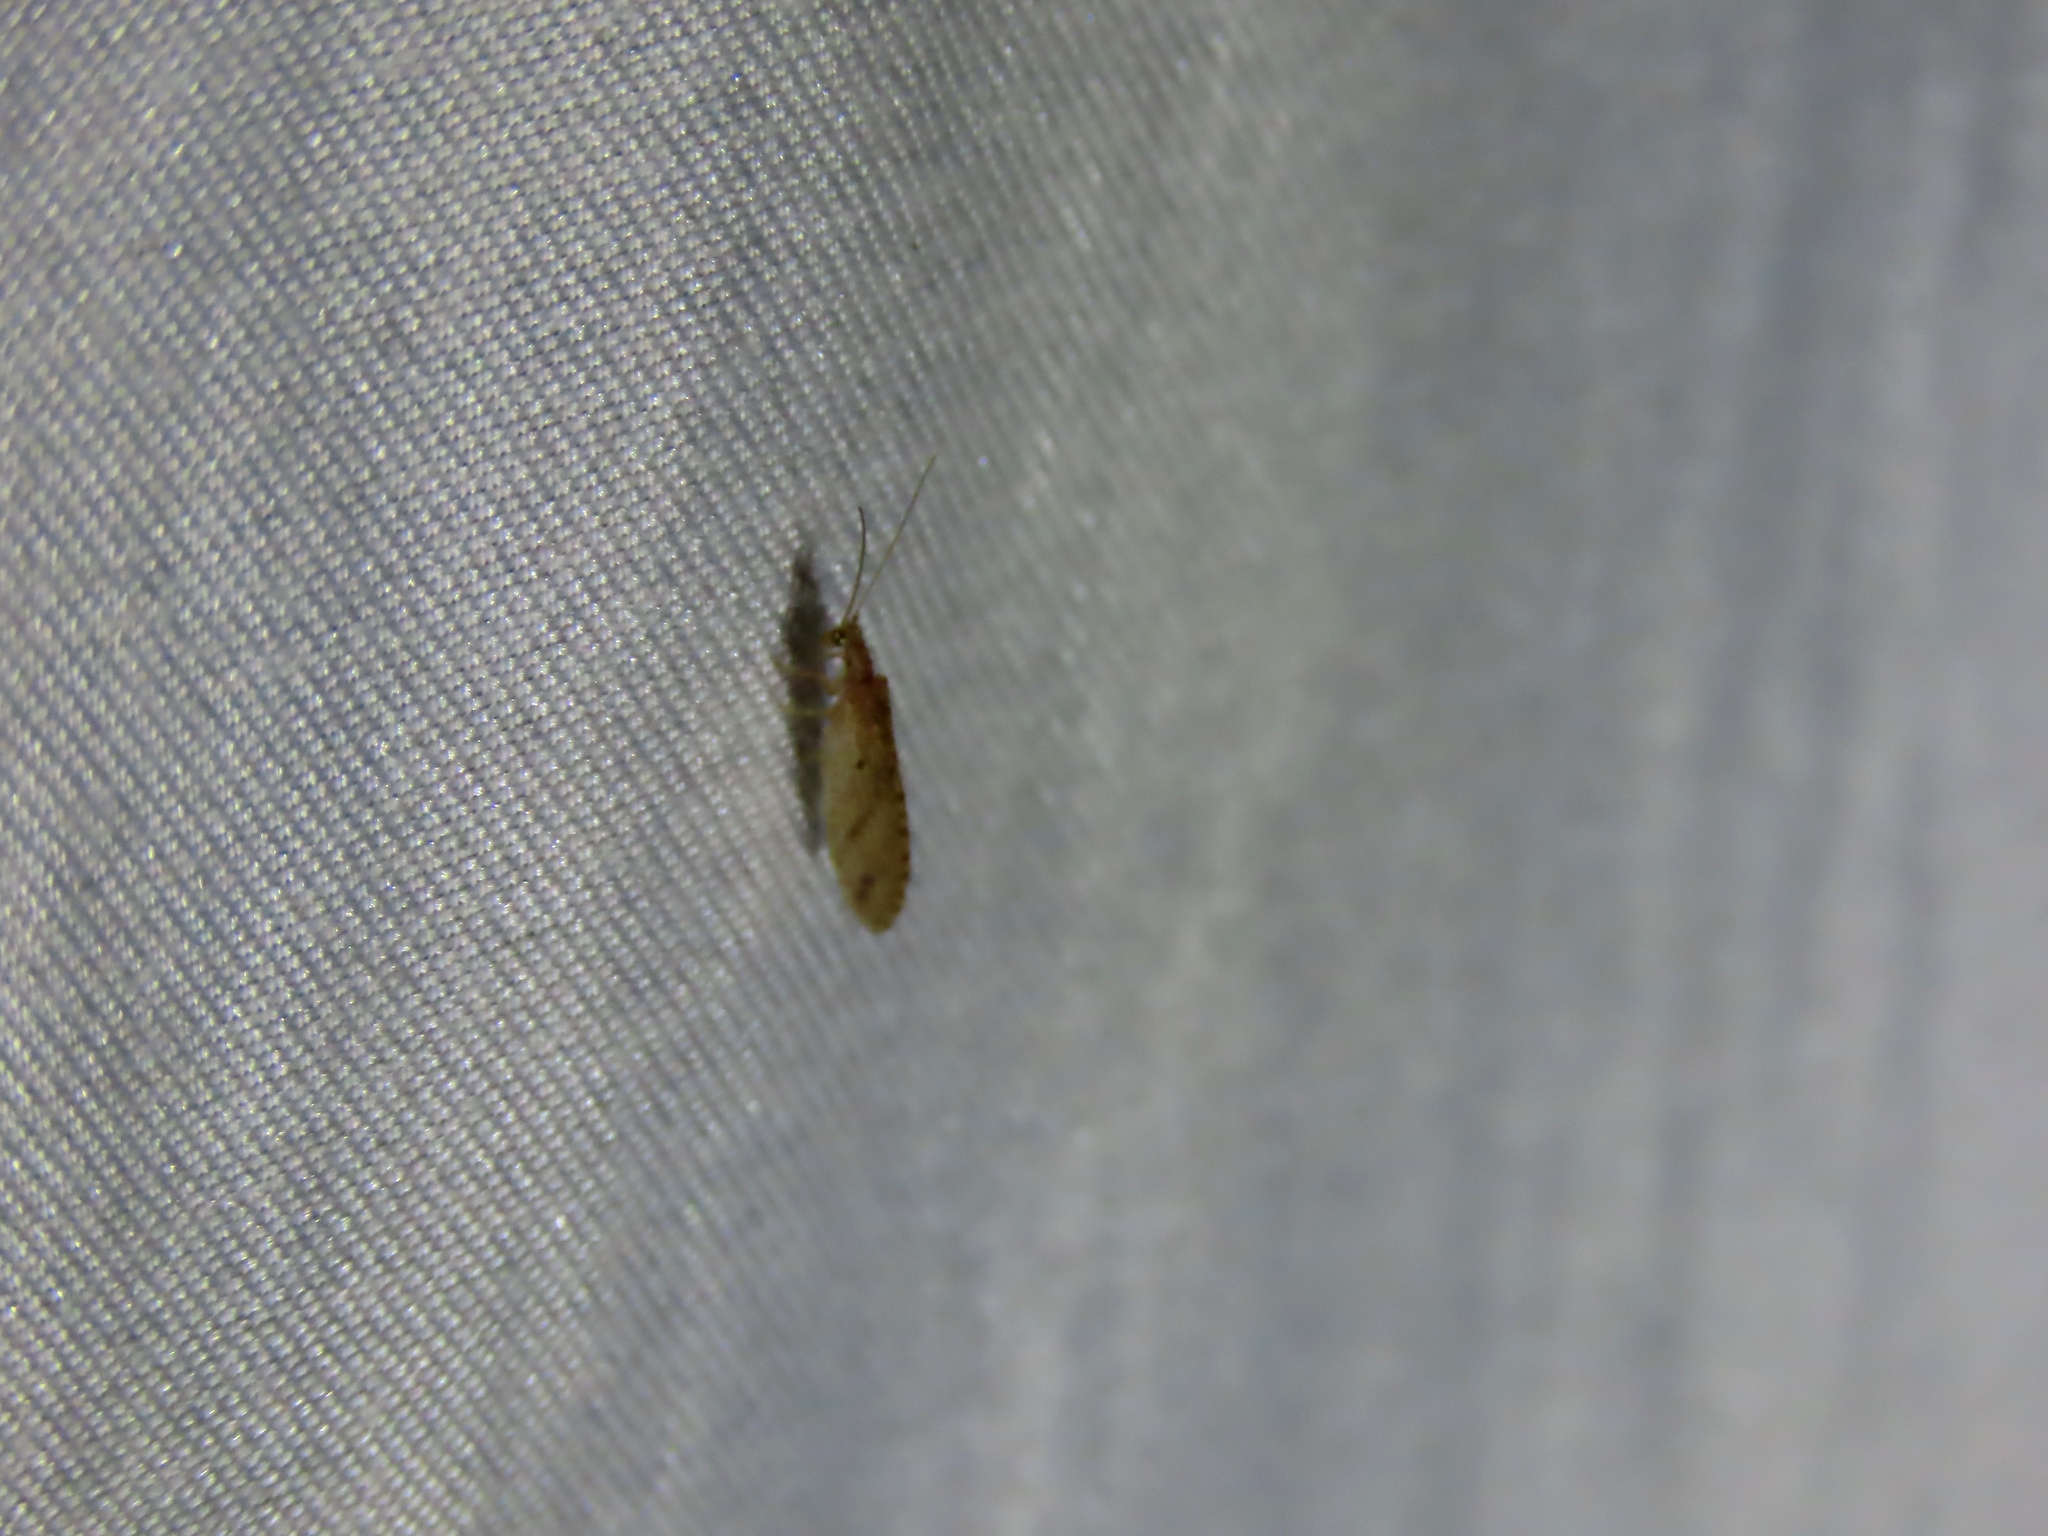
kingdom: Animalia
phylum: Arthropoda
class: Insecta
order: Neuroptera
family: Hemerobiidae
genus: Micromus
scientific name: Micromus tasmaniae
